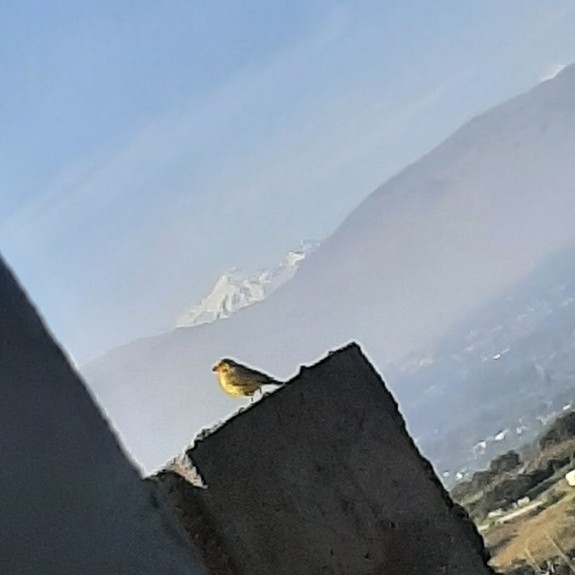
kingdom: Animalia
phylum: Chordata
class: Aves
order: Passeriformes
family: Thraupidae
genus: Sicalis
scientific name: Sicalis flaveola
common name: Saffron finch
